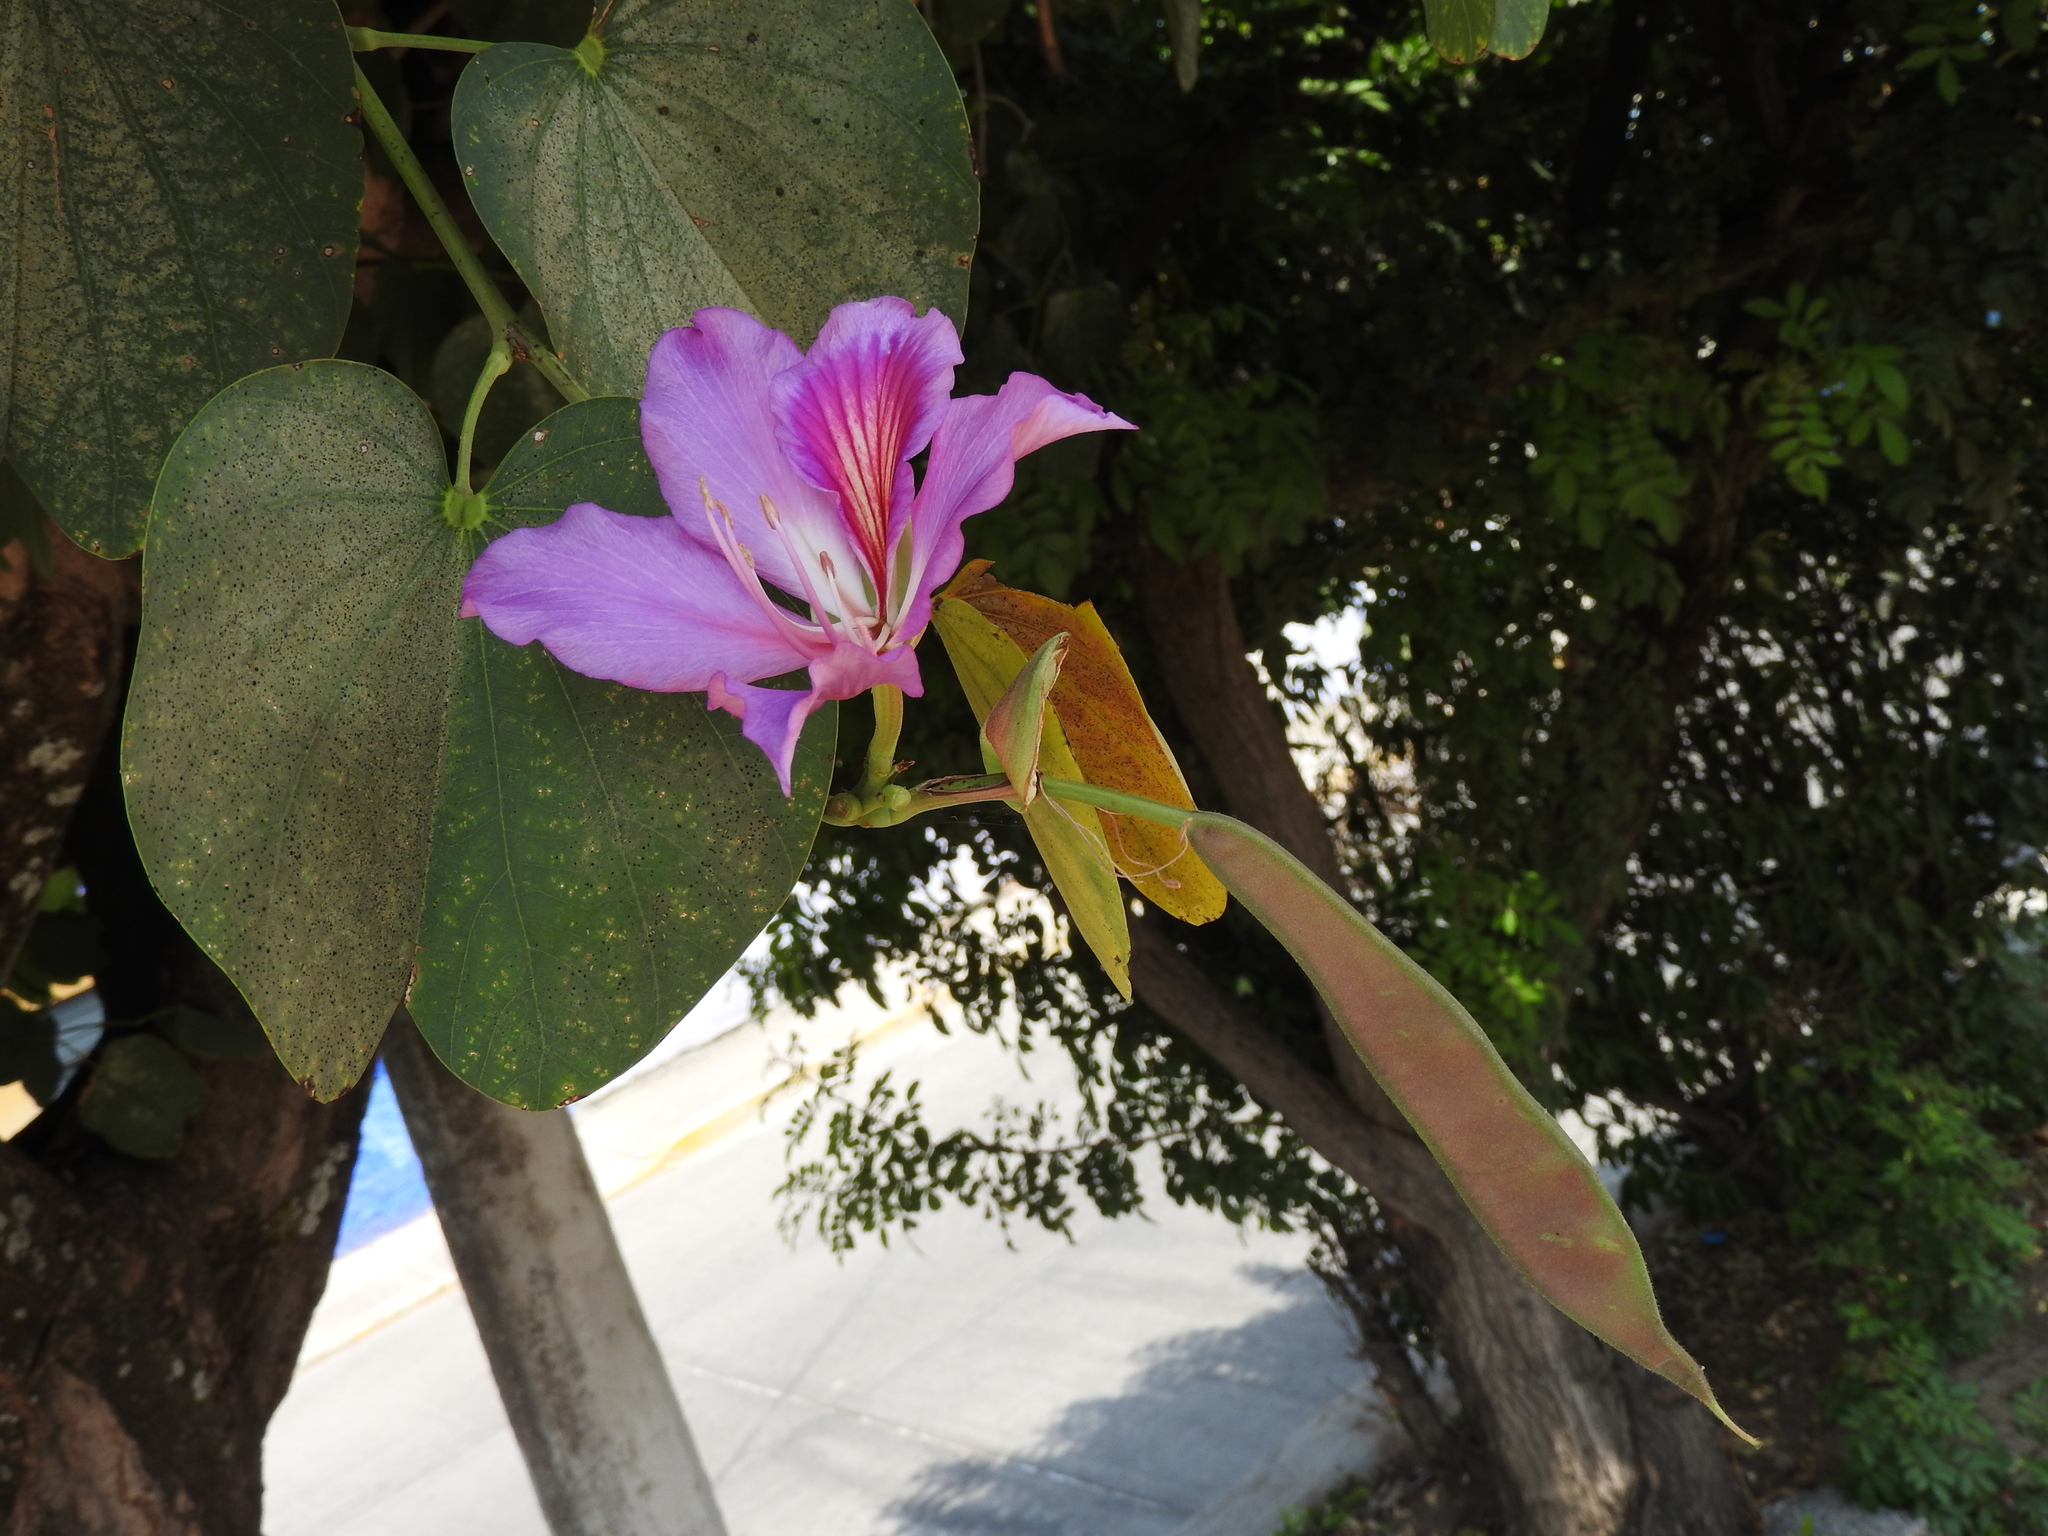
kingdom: Plantae
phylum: Tracheophyta
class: Magnoliopsida
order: Fabales
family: Fabaceae
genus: Bauhinia
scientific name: Bauhinia variegata
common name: Mountain ebony
